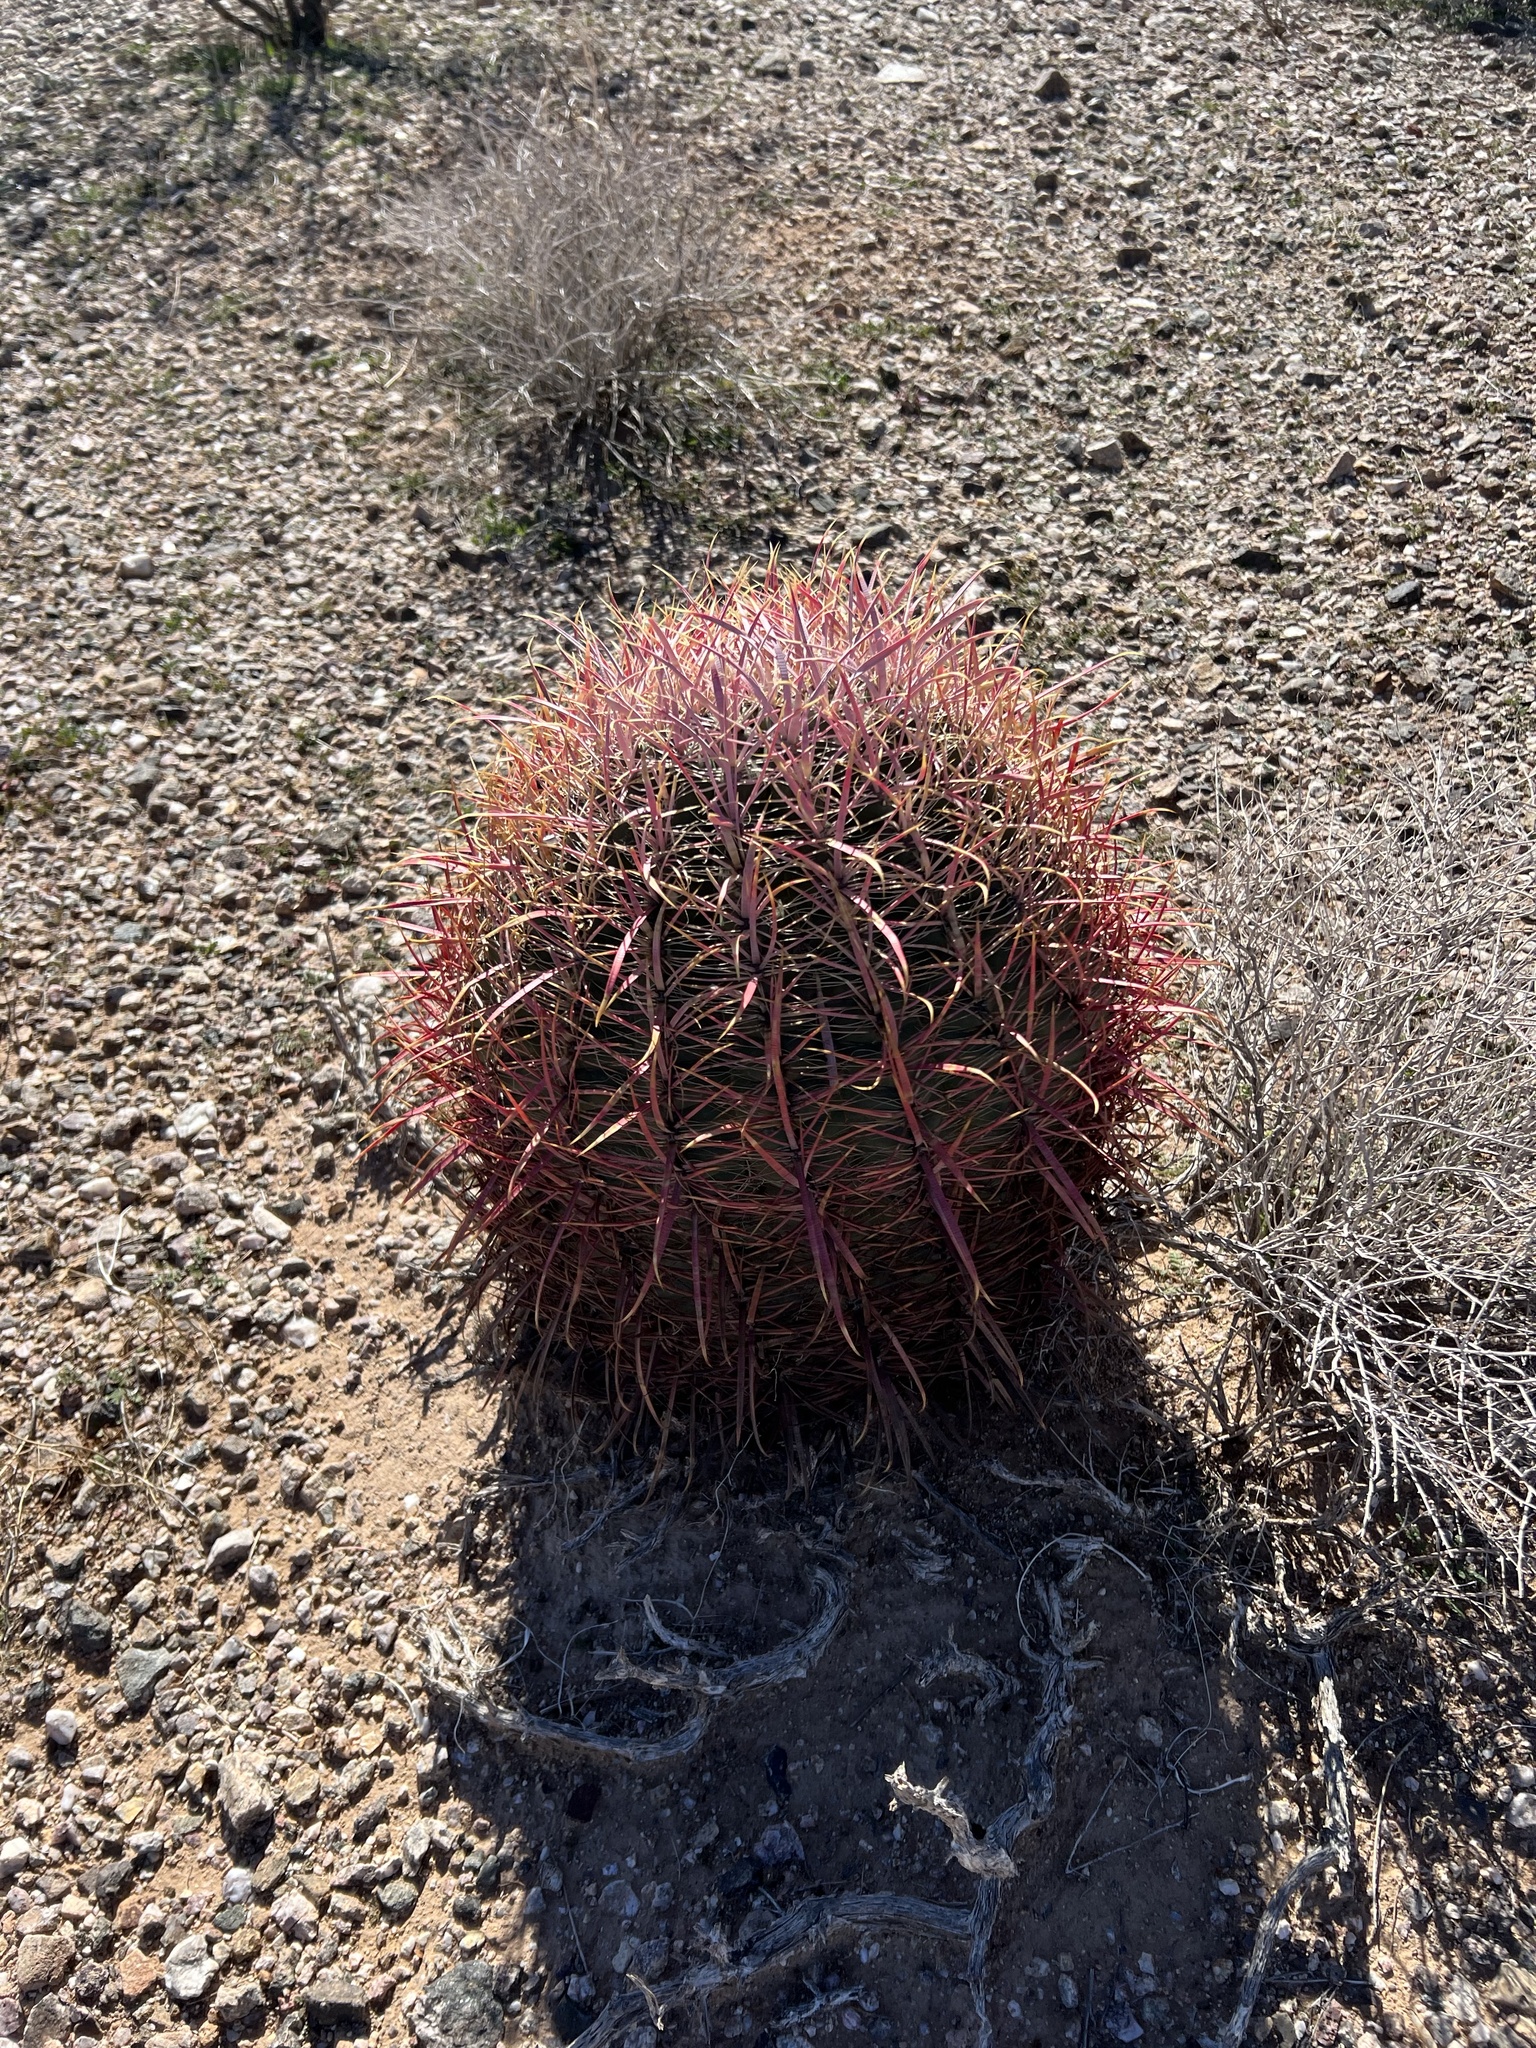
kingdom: Plantae
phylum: Tracheophyta
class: Magnoliopsida
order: Caryophyllales
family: Cactaceae
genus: Ferocactus
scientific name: Ferocactus cylindraceus
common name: California barrel cactus
